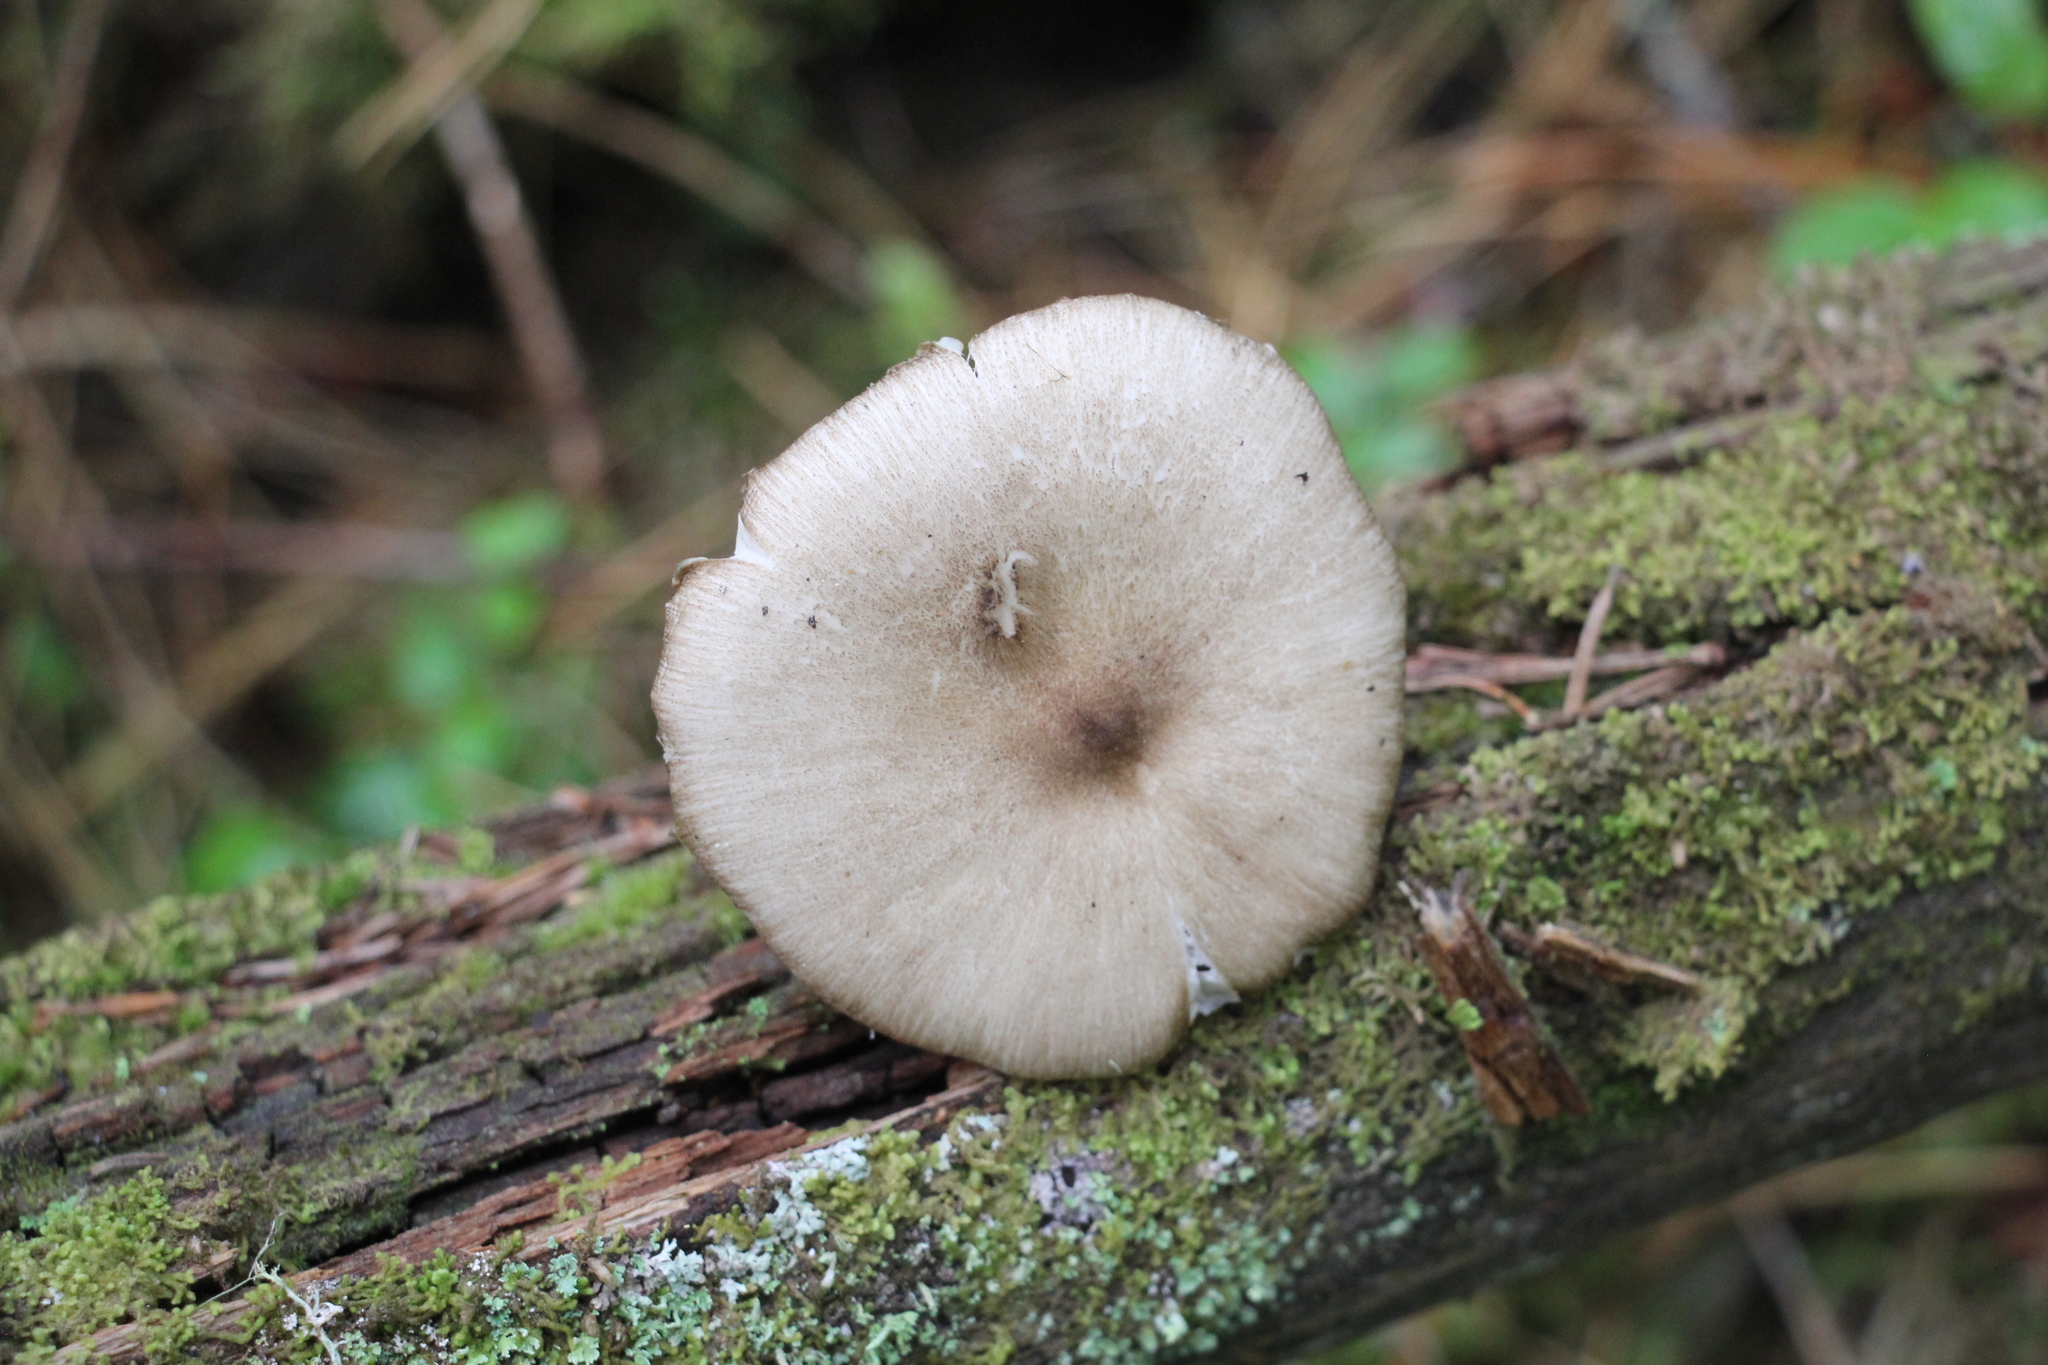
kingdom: Fungi
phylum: Basidiomycota
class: Agaricomycetes
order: Agaricales
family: Tricholomataceae
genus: Megacollybia
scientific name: Megacollybia platyphylla
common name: Whitelaced shank
